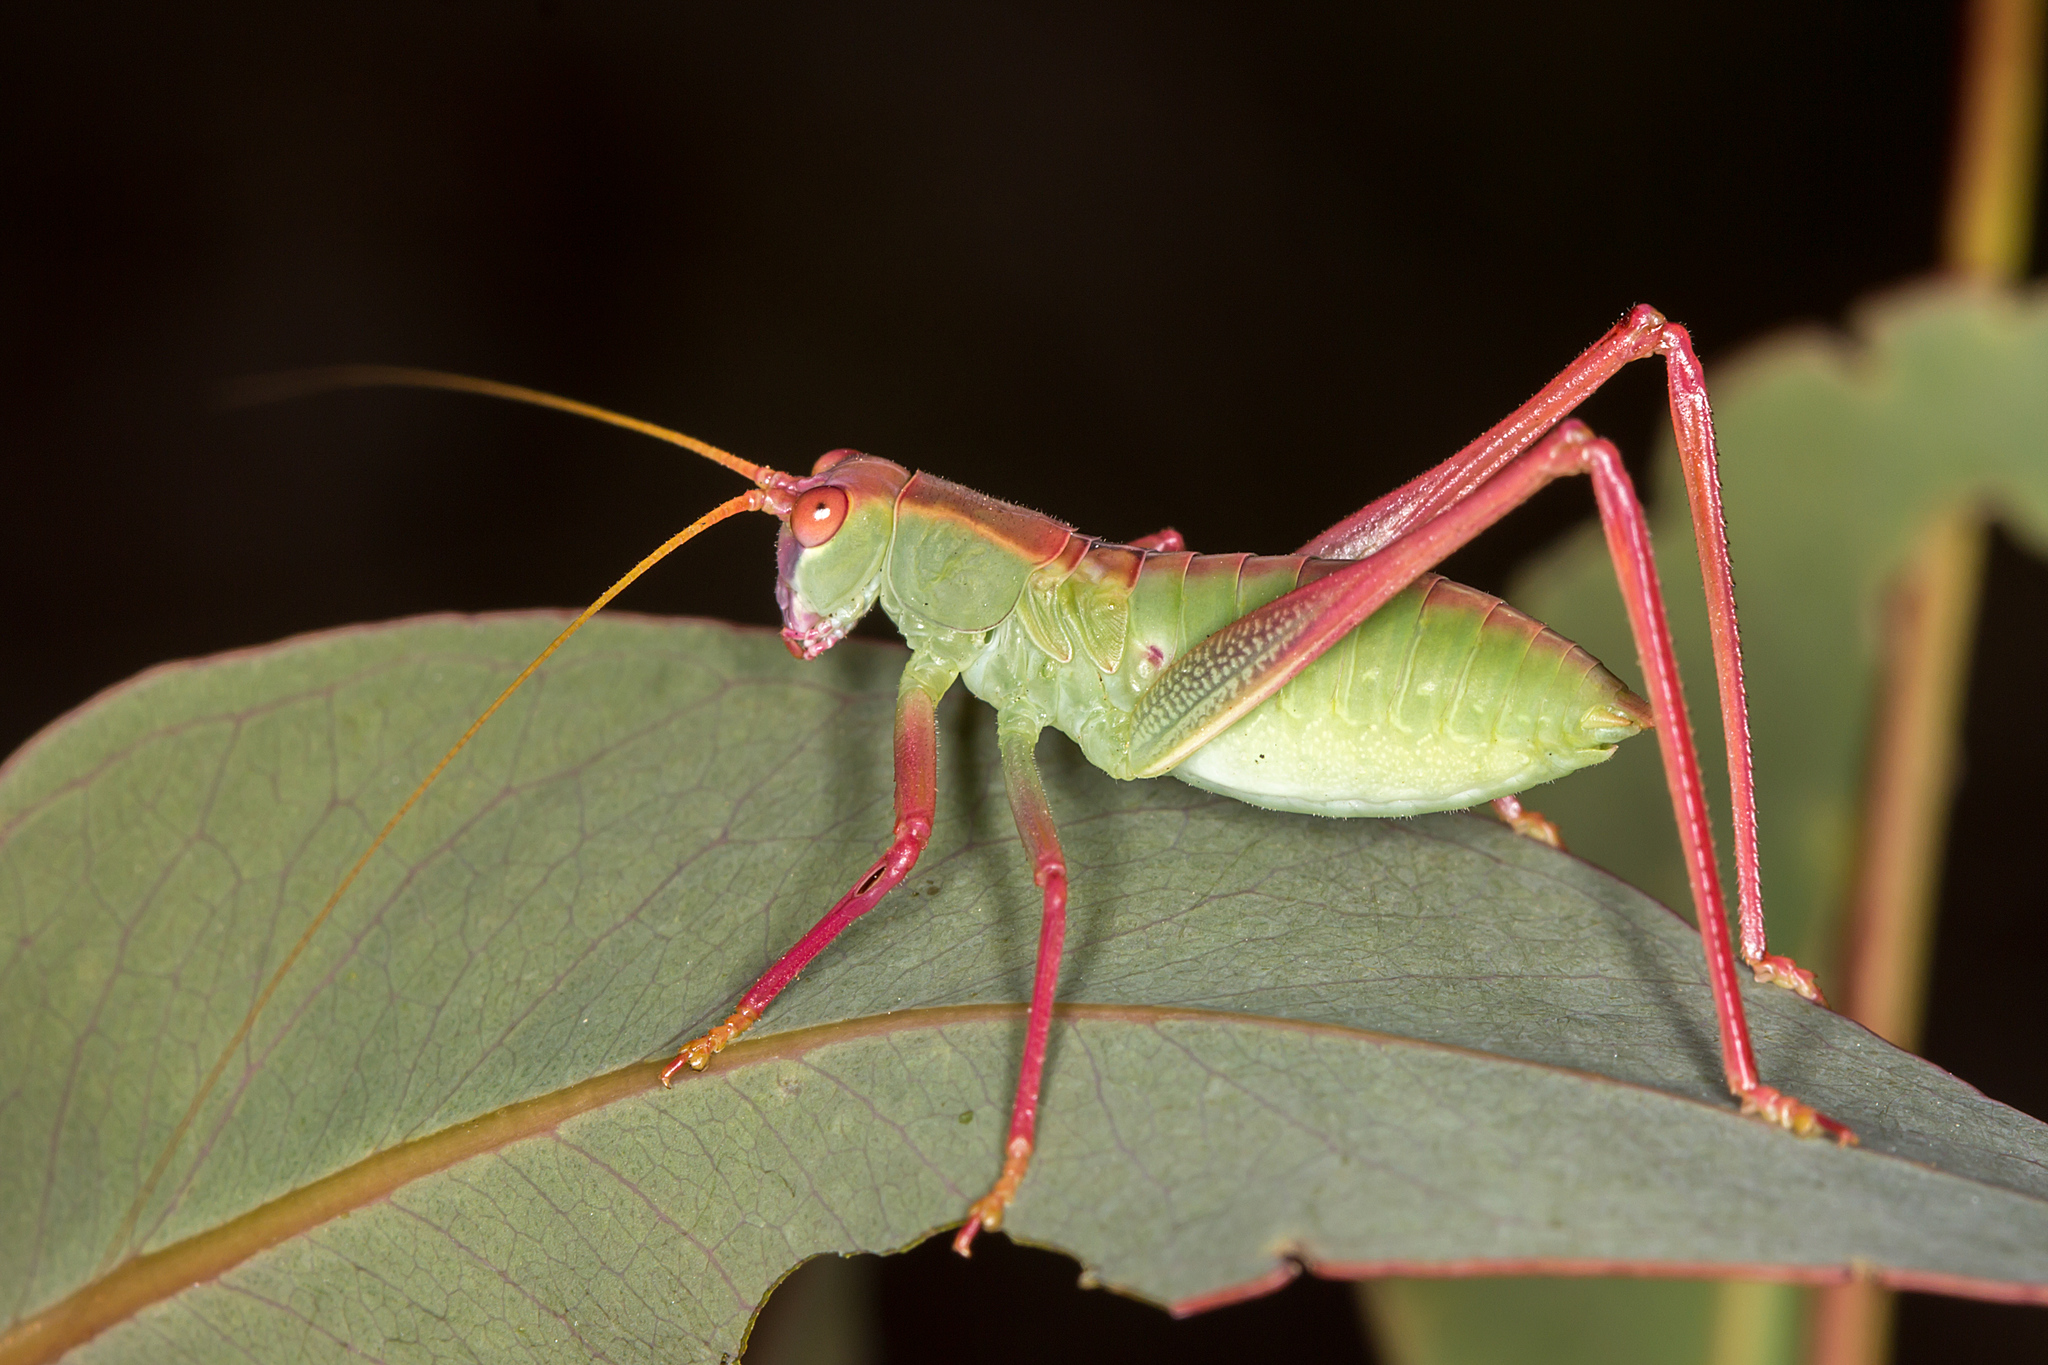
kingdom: Animalia
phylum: Arthropoda
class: Insecta
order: Orthoptera
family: Tettigoniidae
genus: Torbia
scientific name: Torbia viridissima
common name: Non-predaceous gum leaf katydid
